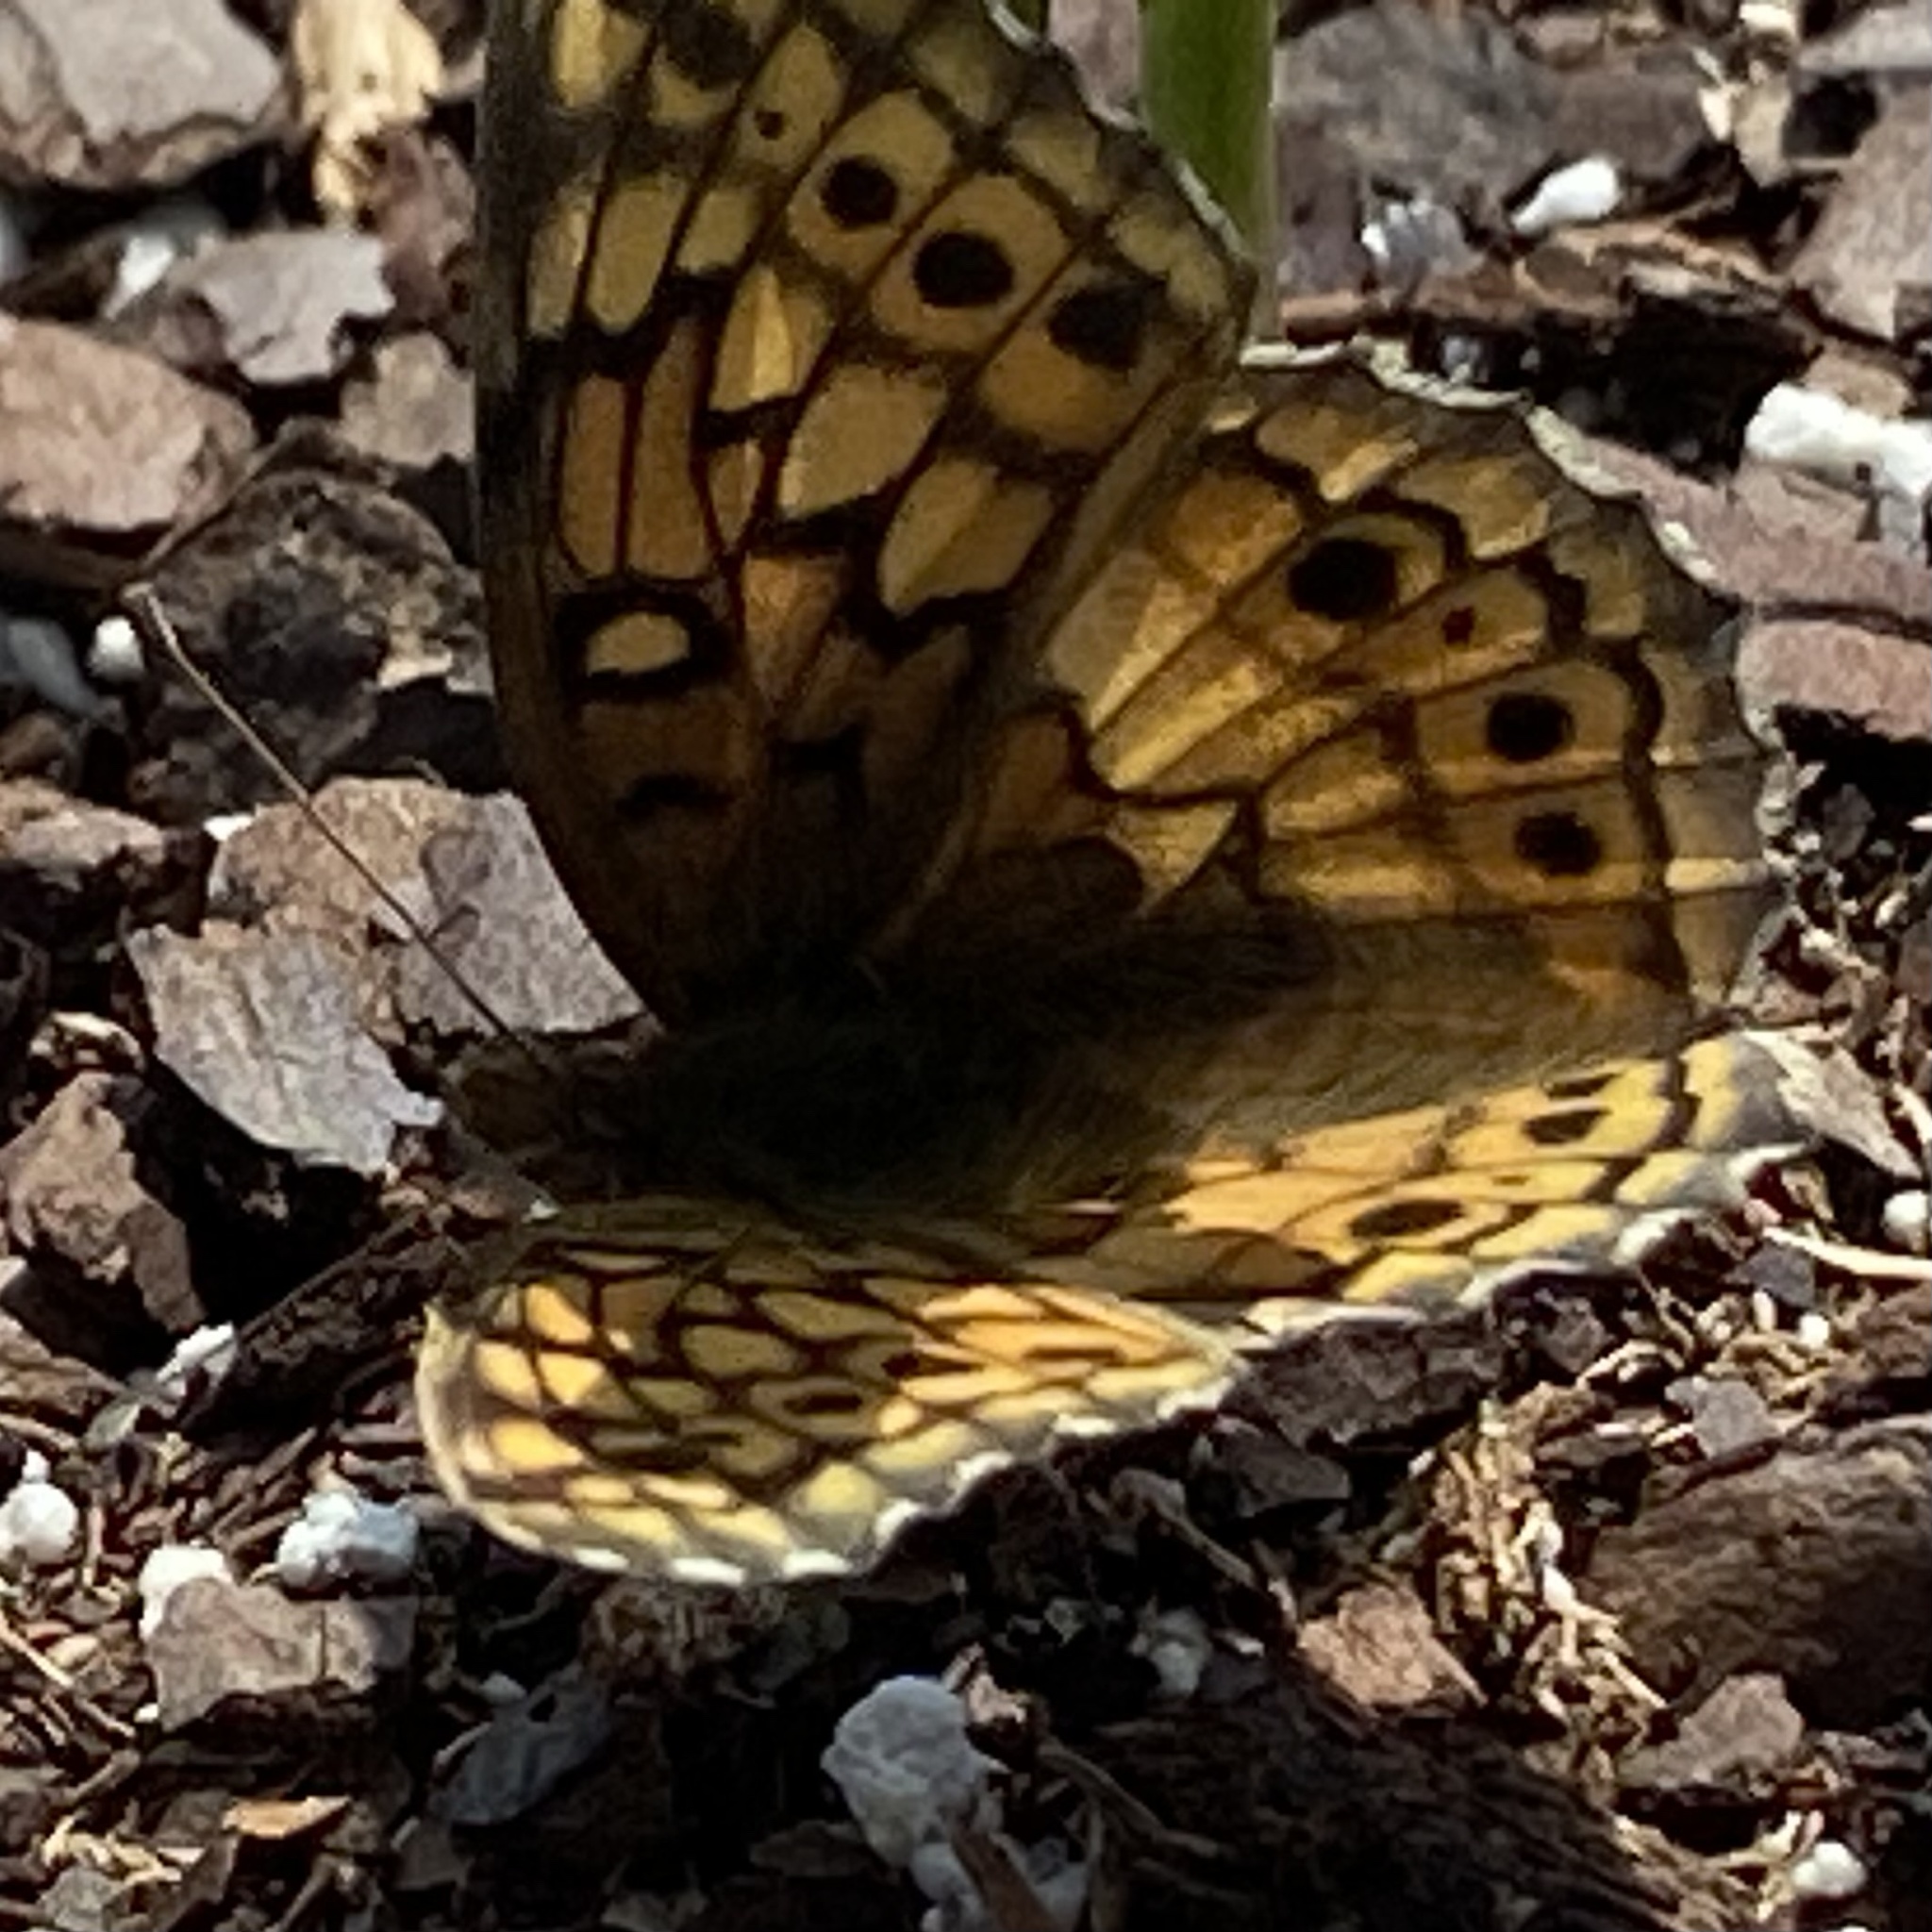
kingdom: Animalia
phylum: Arthropoda
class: Insecta
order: Lepidoptera
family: Nymphalidae
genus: Euptoieta
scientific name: Euptoieta claudia
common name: Variegated fritillary
